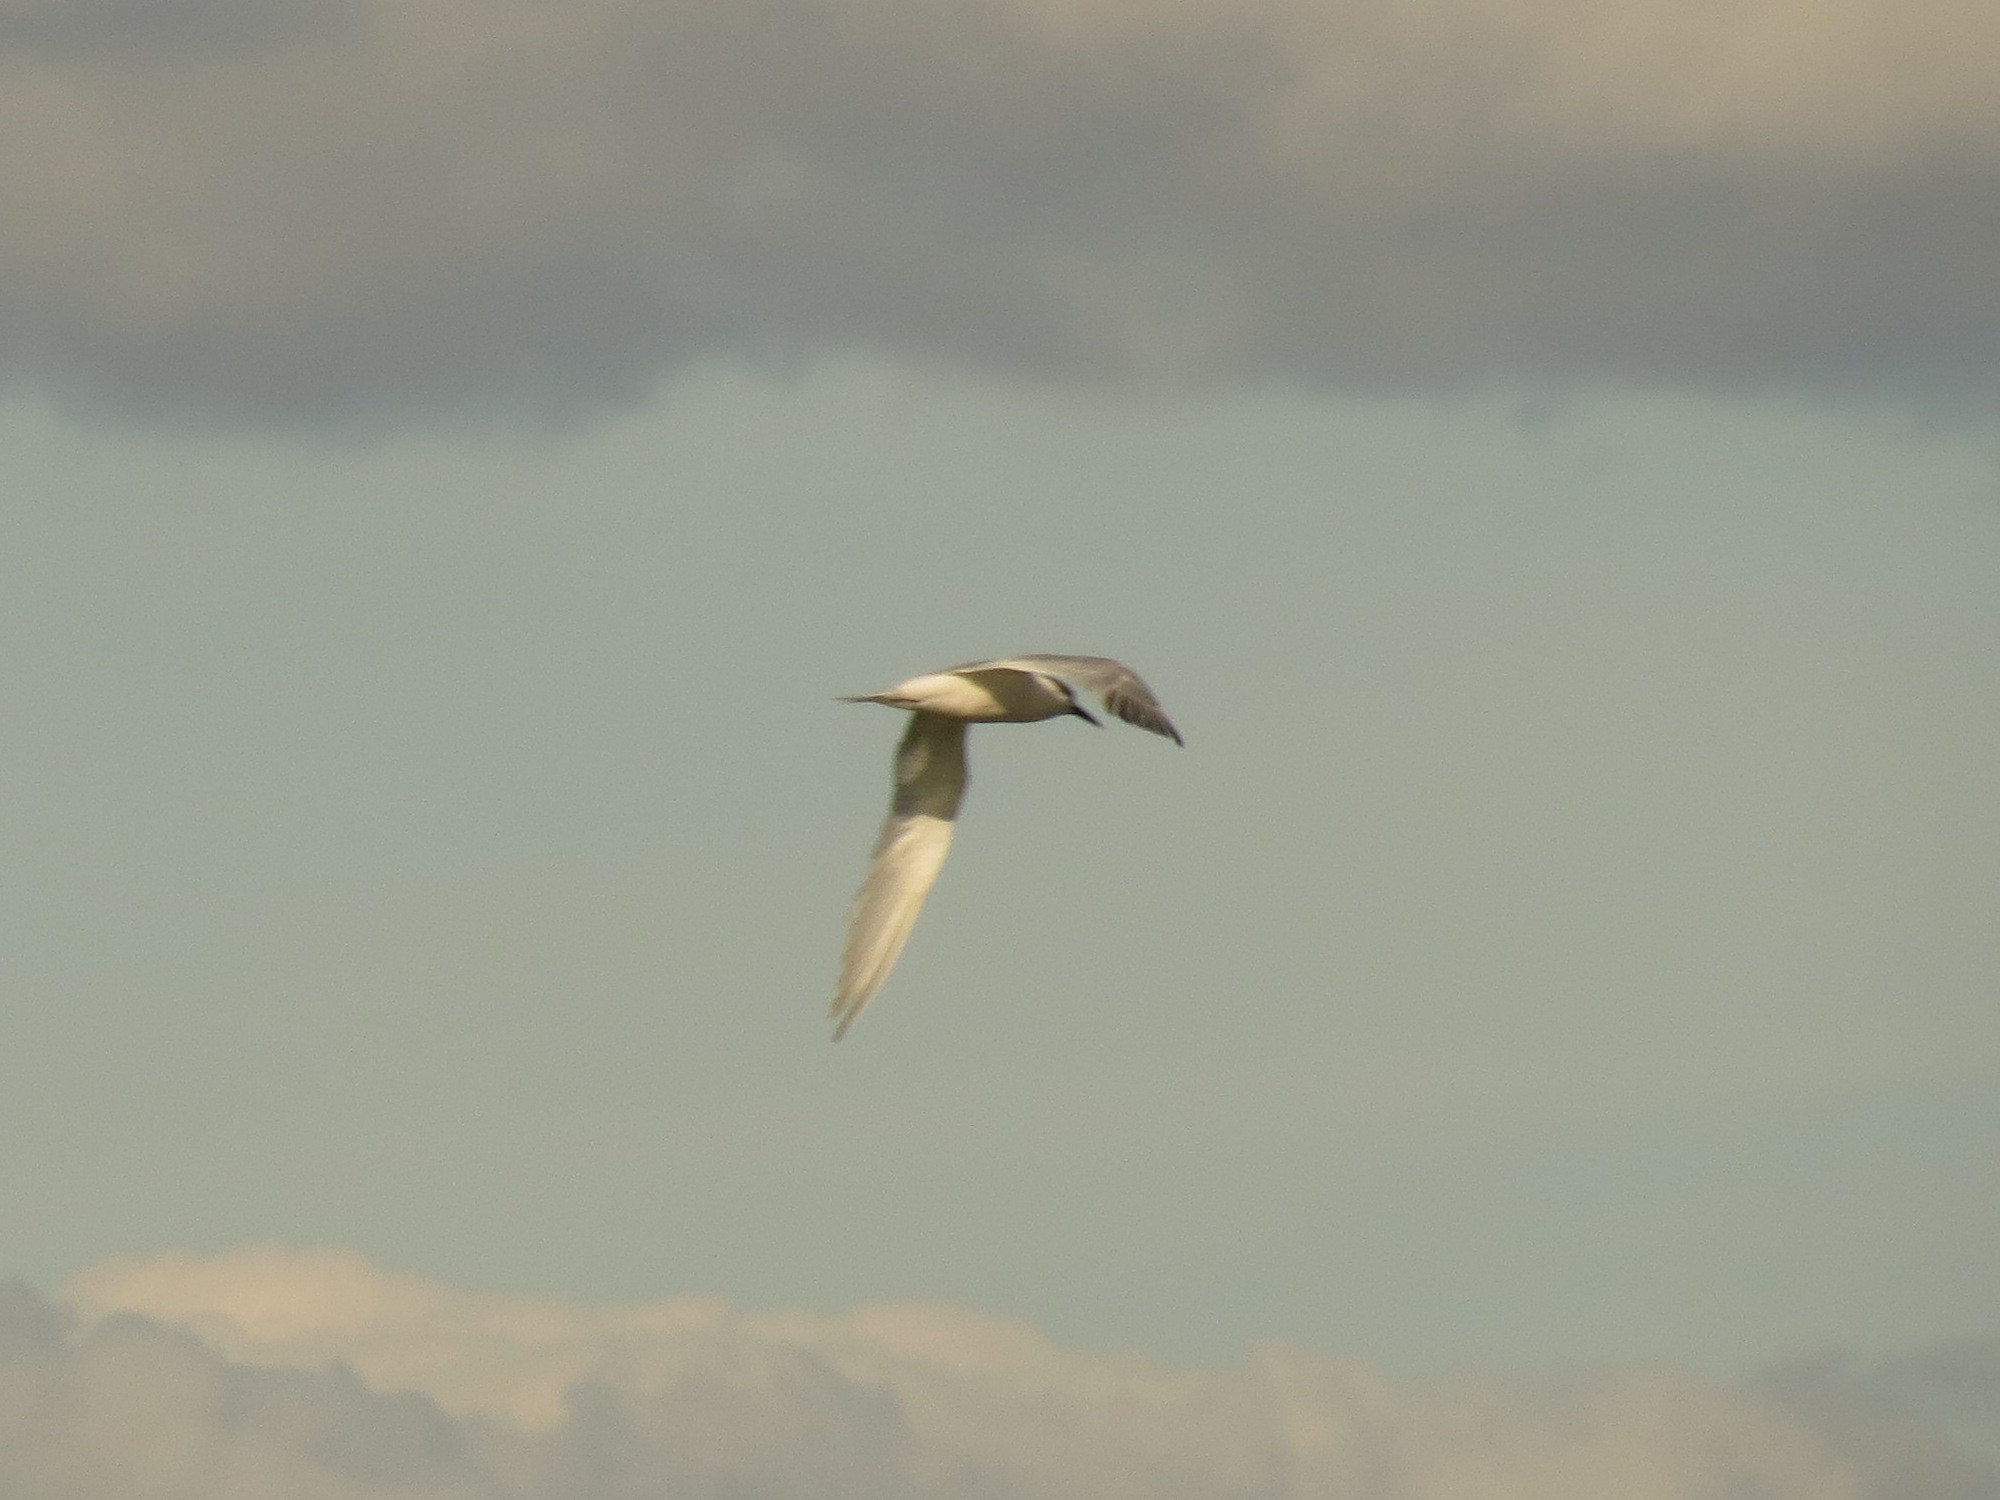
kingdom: Animalia
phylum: Chordata
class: Aves
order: Charadriiformes
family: Laridae
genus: Sterna
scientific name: Sterna hirundo
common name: Common tern
